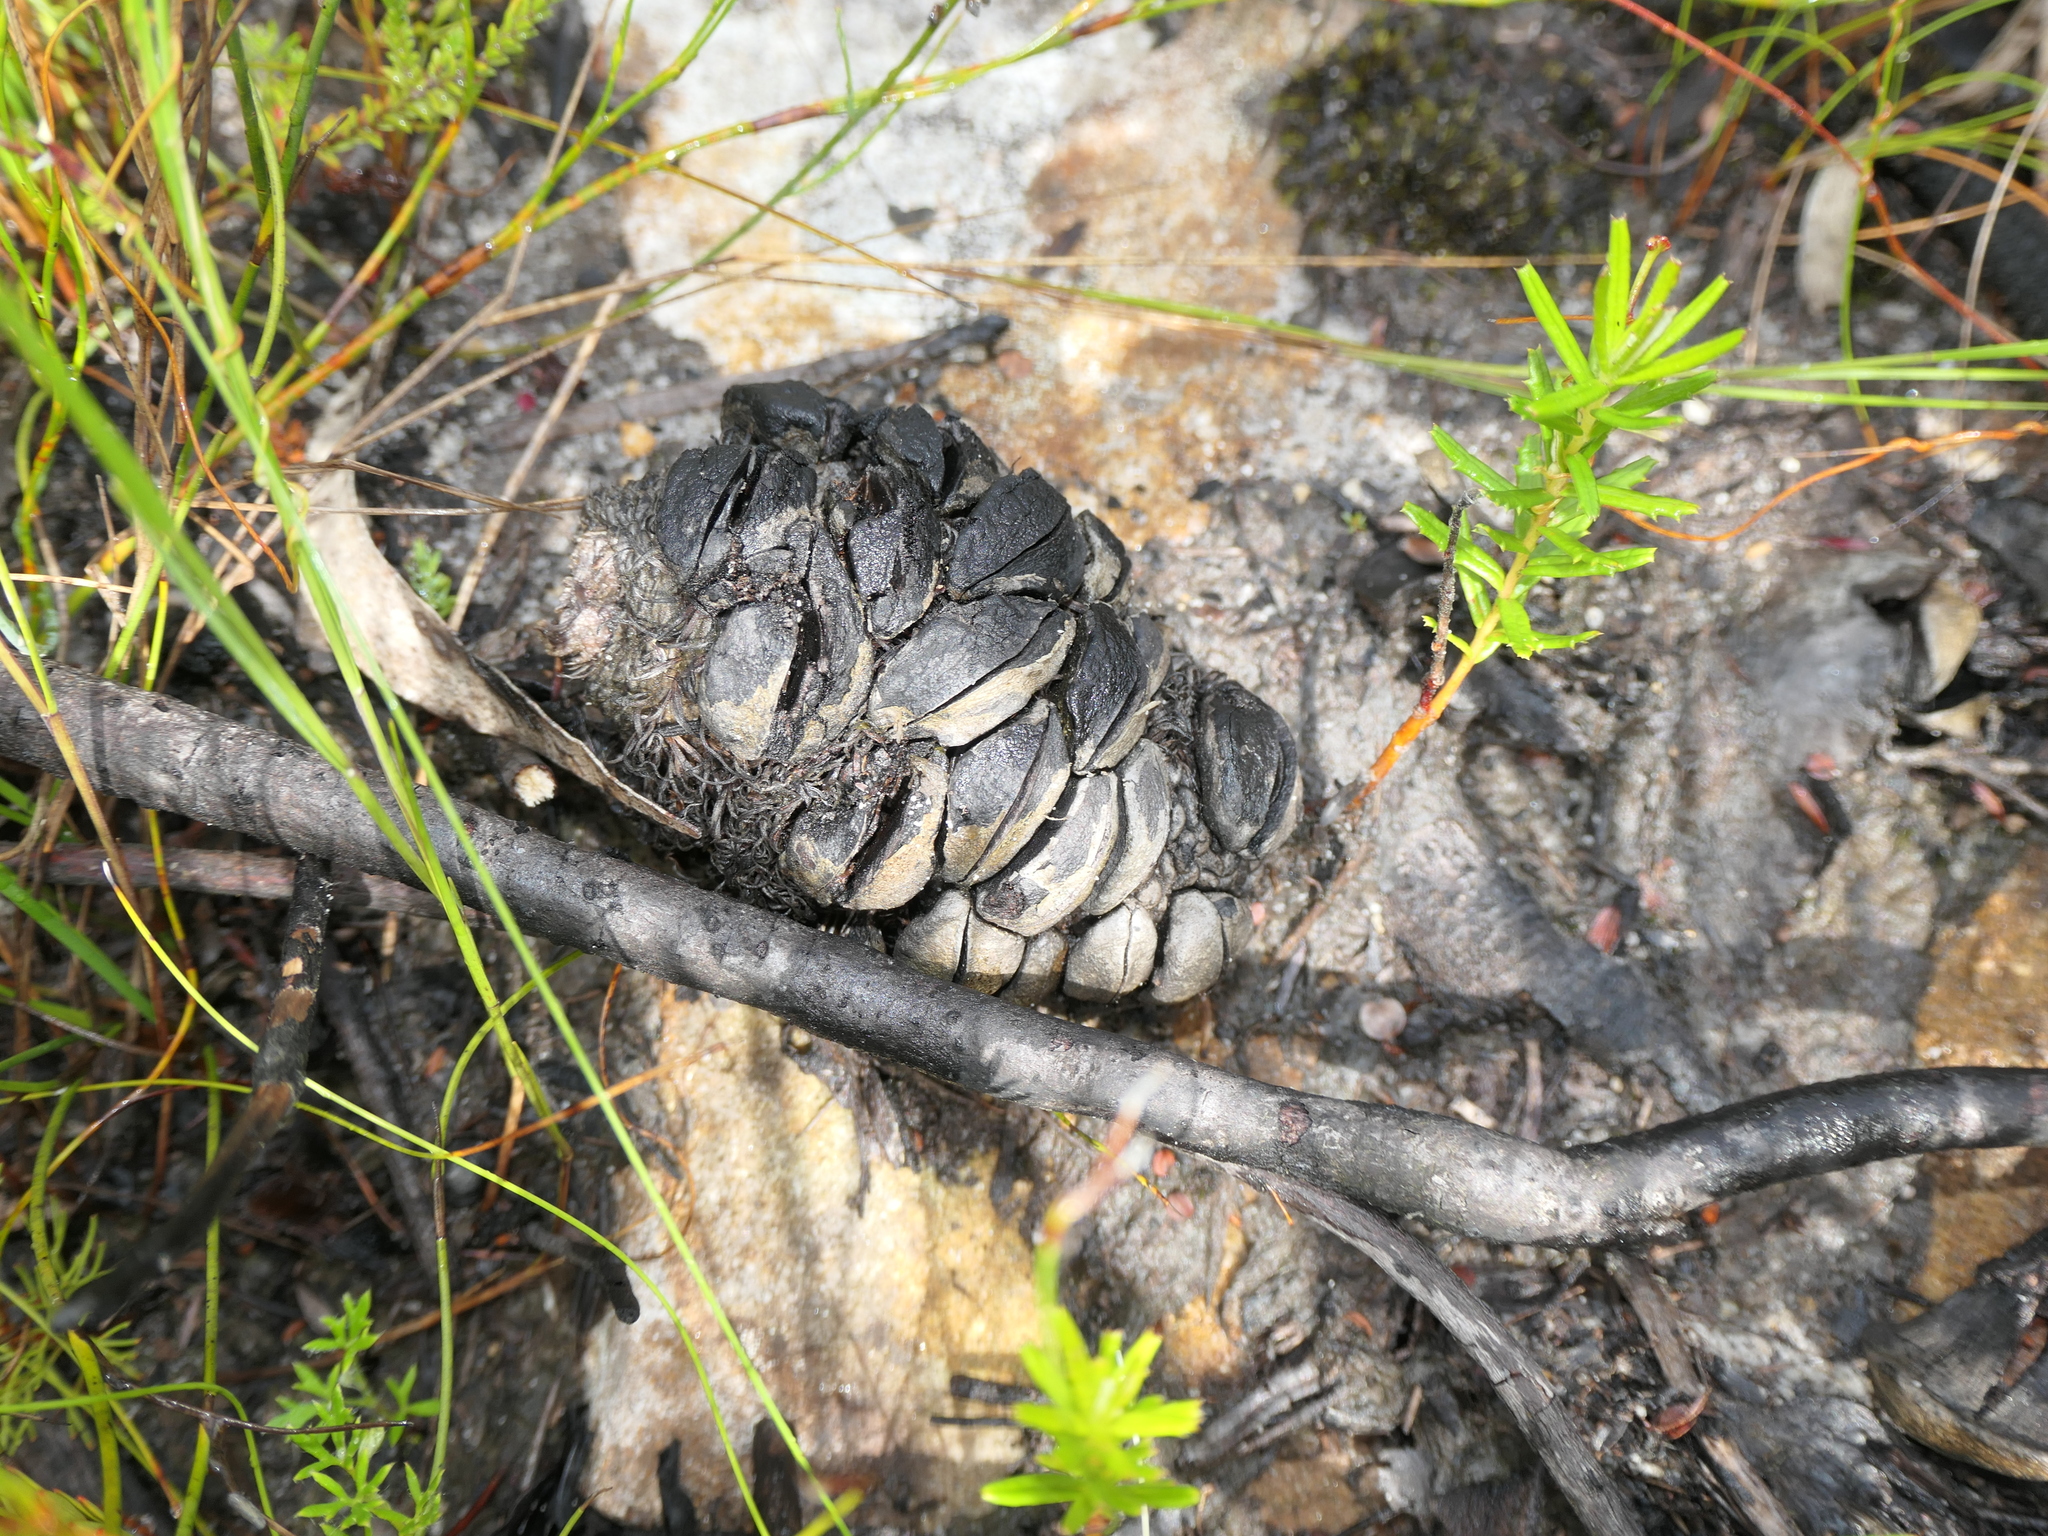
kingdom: Plantae
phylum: Tracheophyta
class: Magnoliopsida
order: Proteales
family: Proteaceae
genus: Banksia
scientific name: Banksia ericifolia
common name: Heath-leaf banksia
